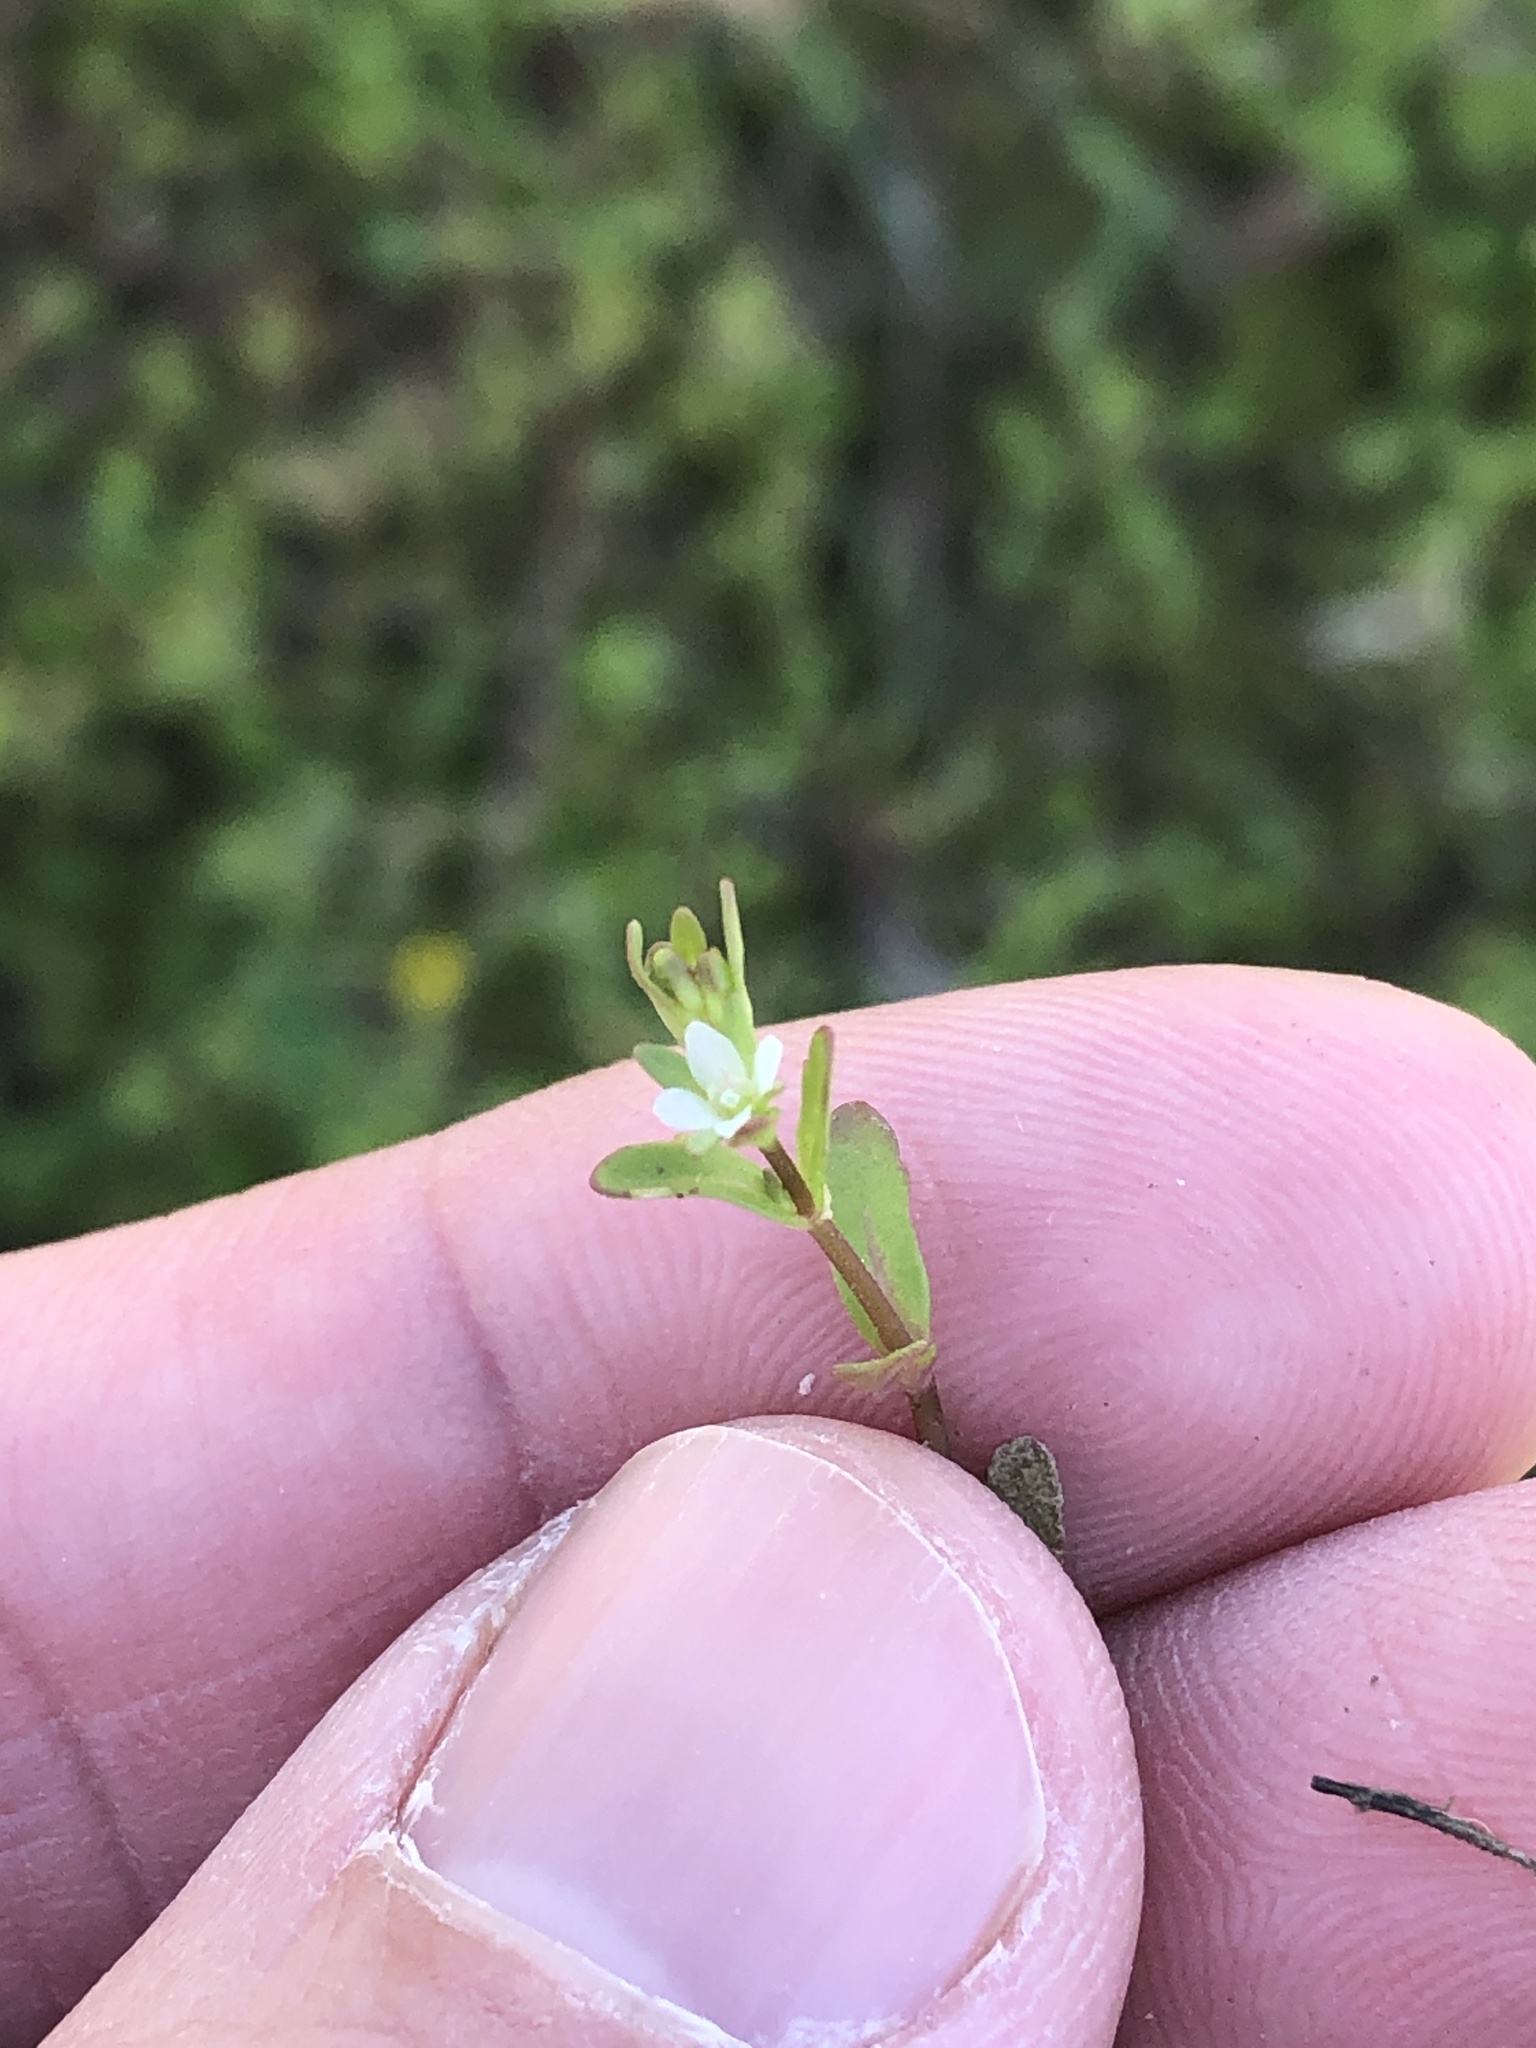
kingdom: Plantae
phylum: Tracheophyta
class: Magnoliopsida
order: Lamiales
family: Plantaginaceae
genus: Veronica
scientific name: Veronica peregrina
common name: Neckweed
